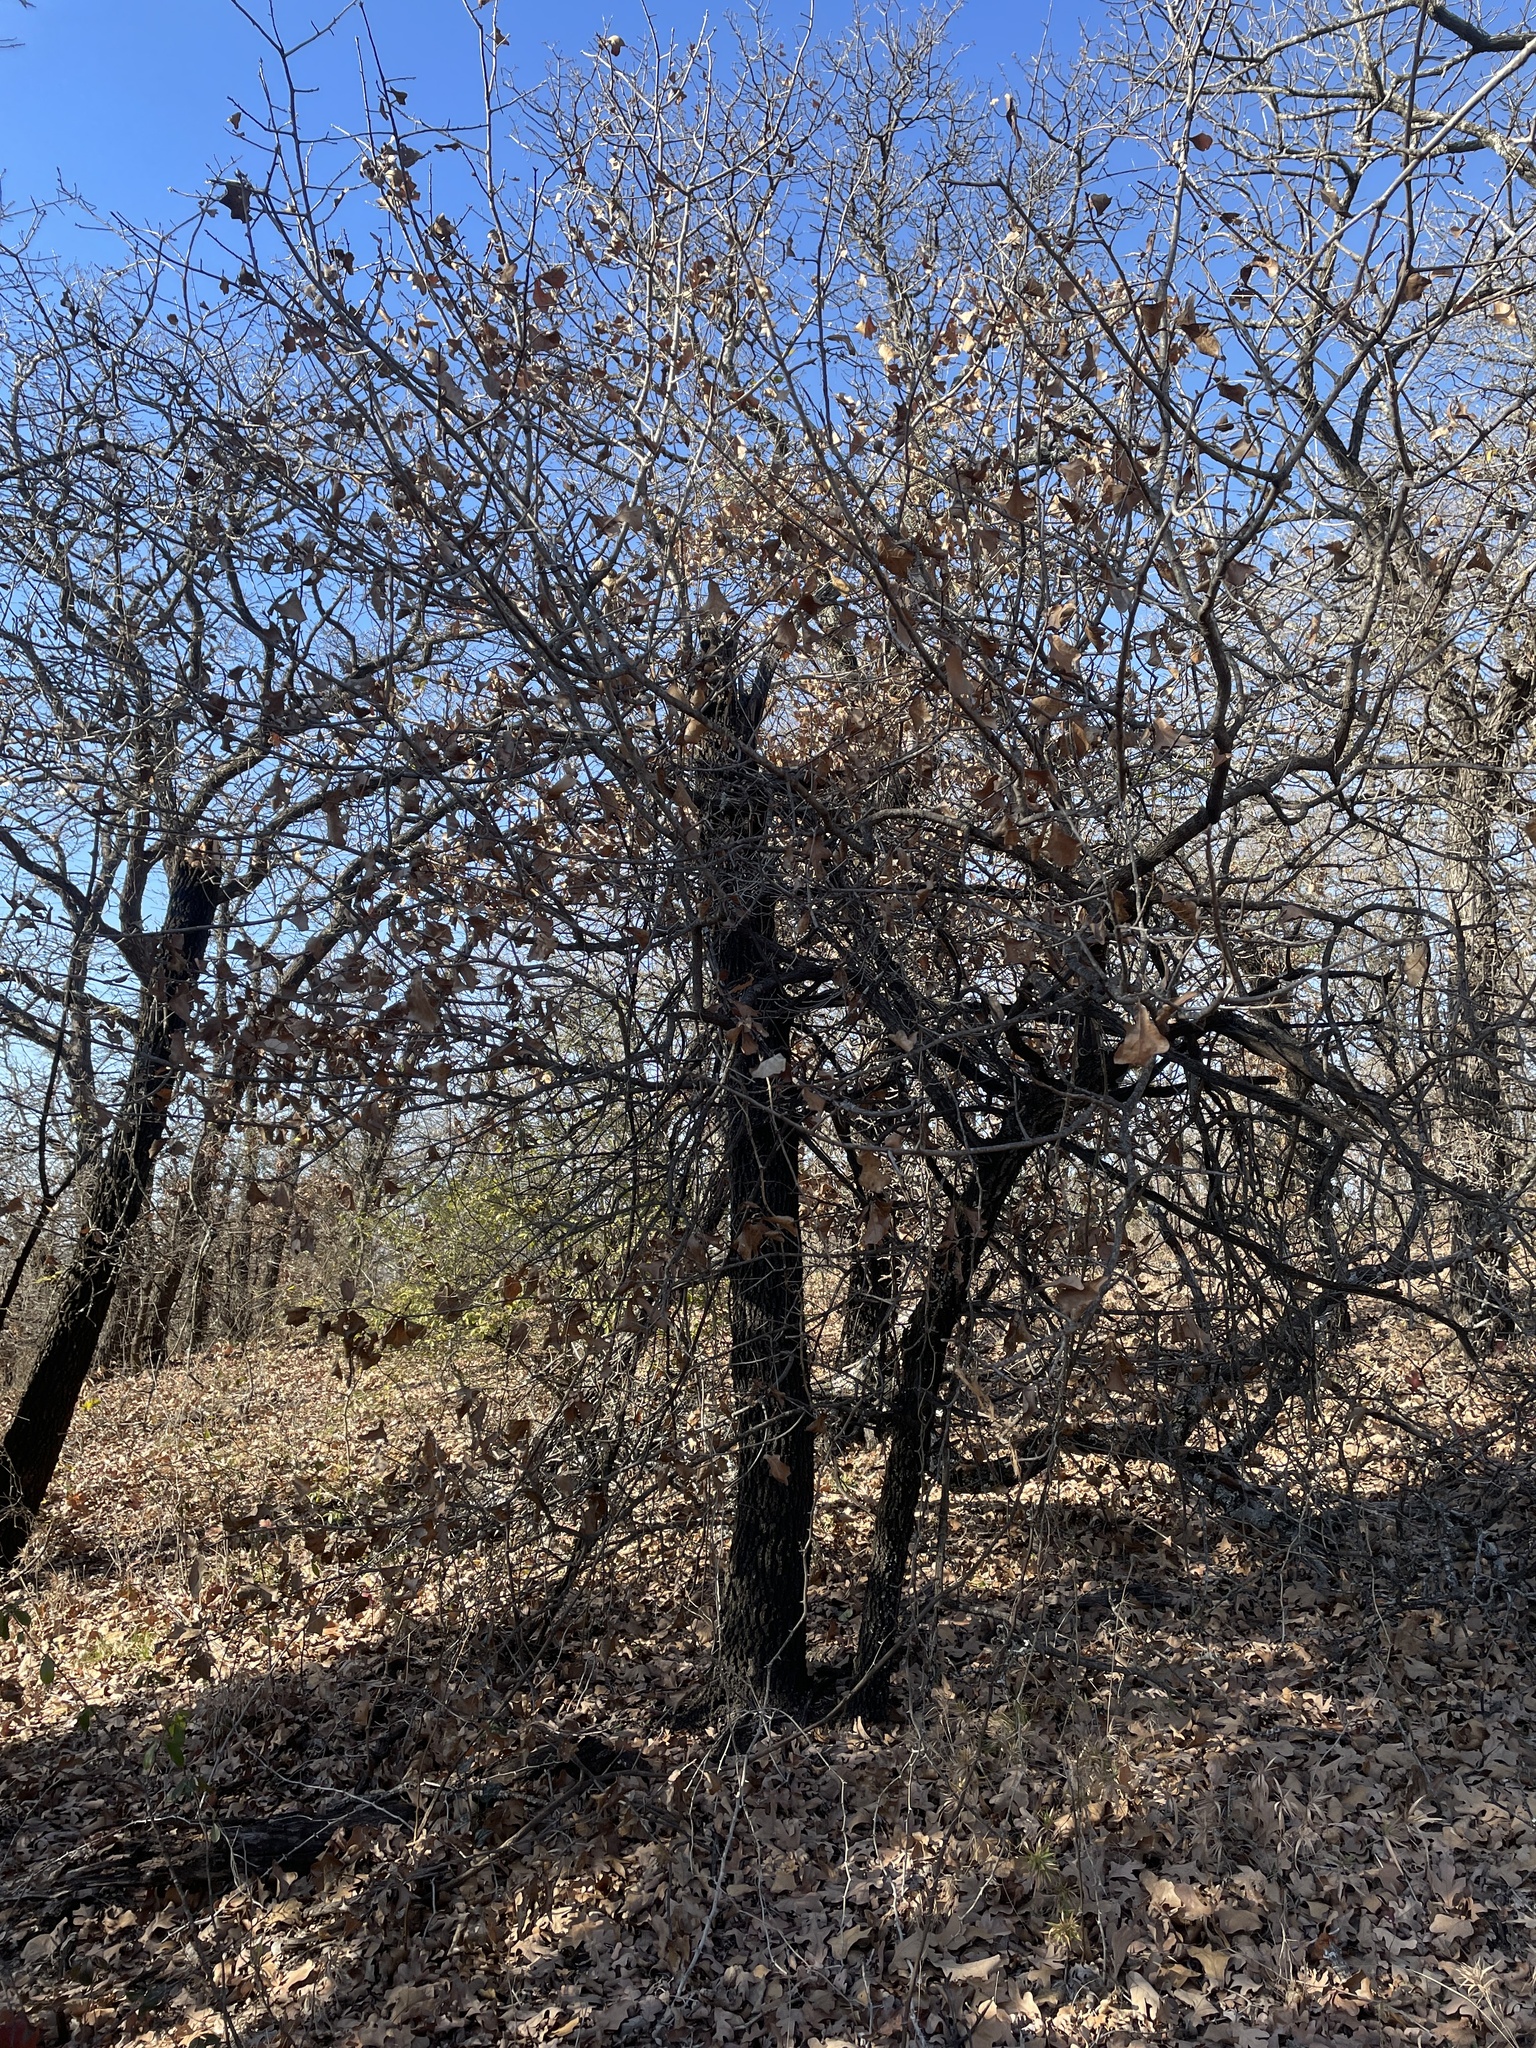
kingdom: Plantae
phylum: Tracheophyta
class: Magnoliopsida
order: Fagales
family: Fagaceae
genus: Quercus
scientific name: Quercus marilandica
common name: Blackjack oak
